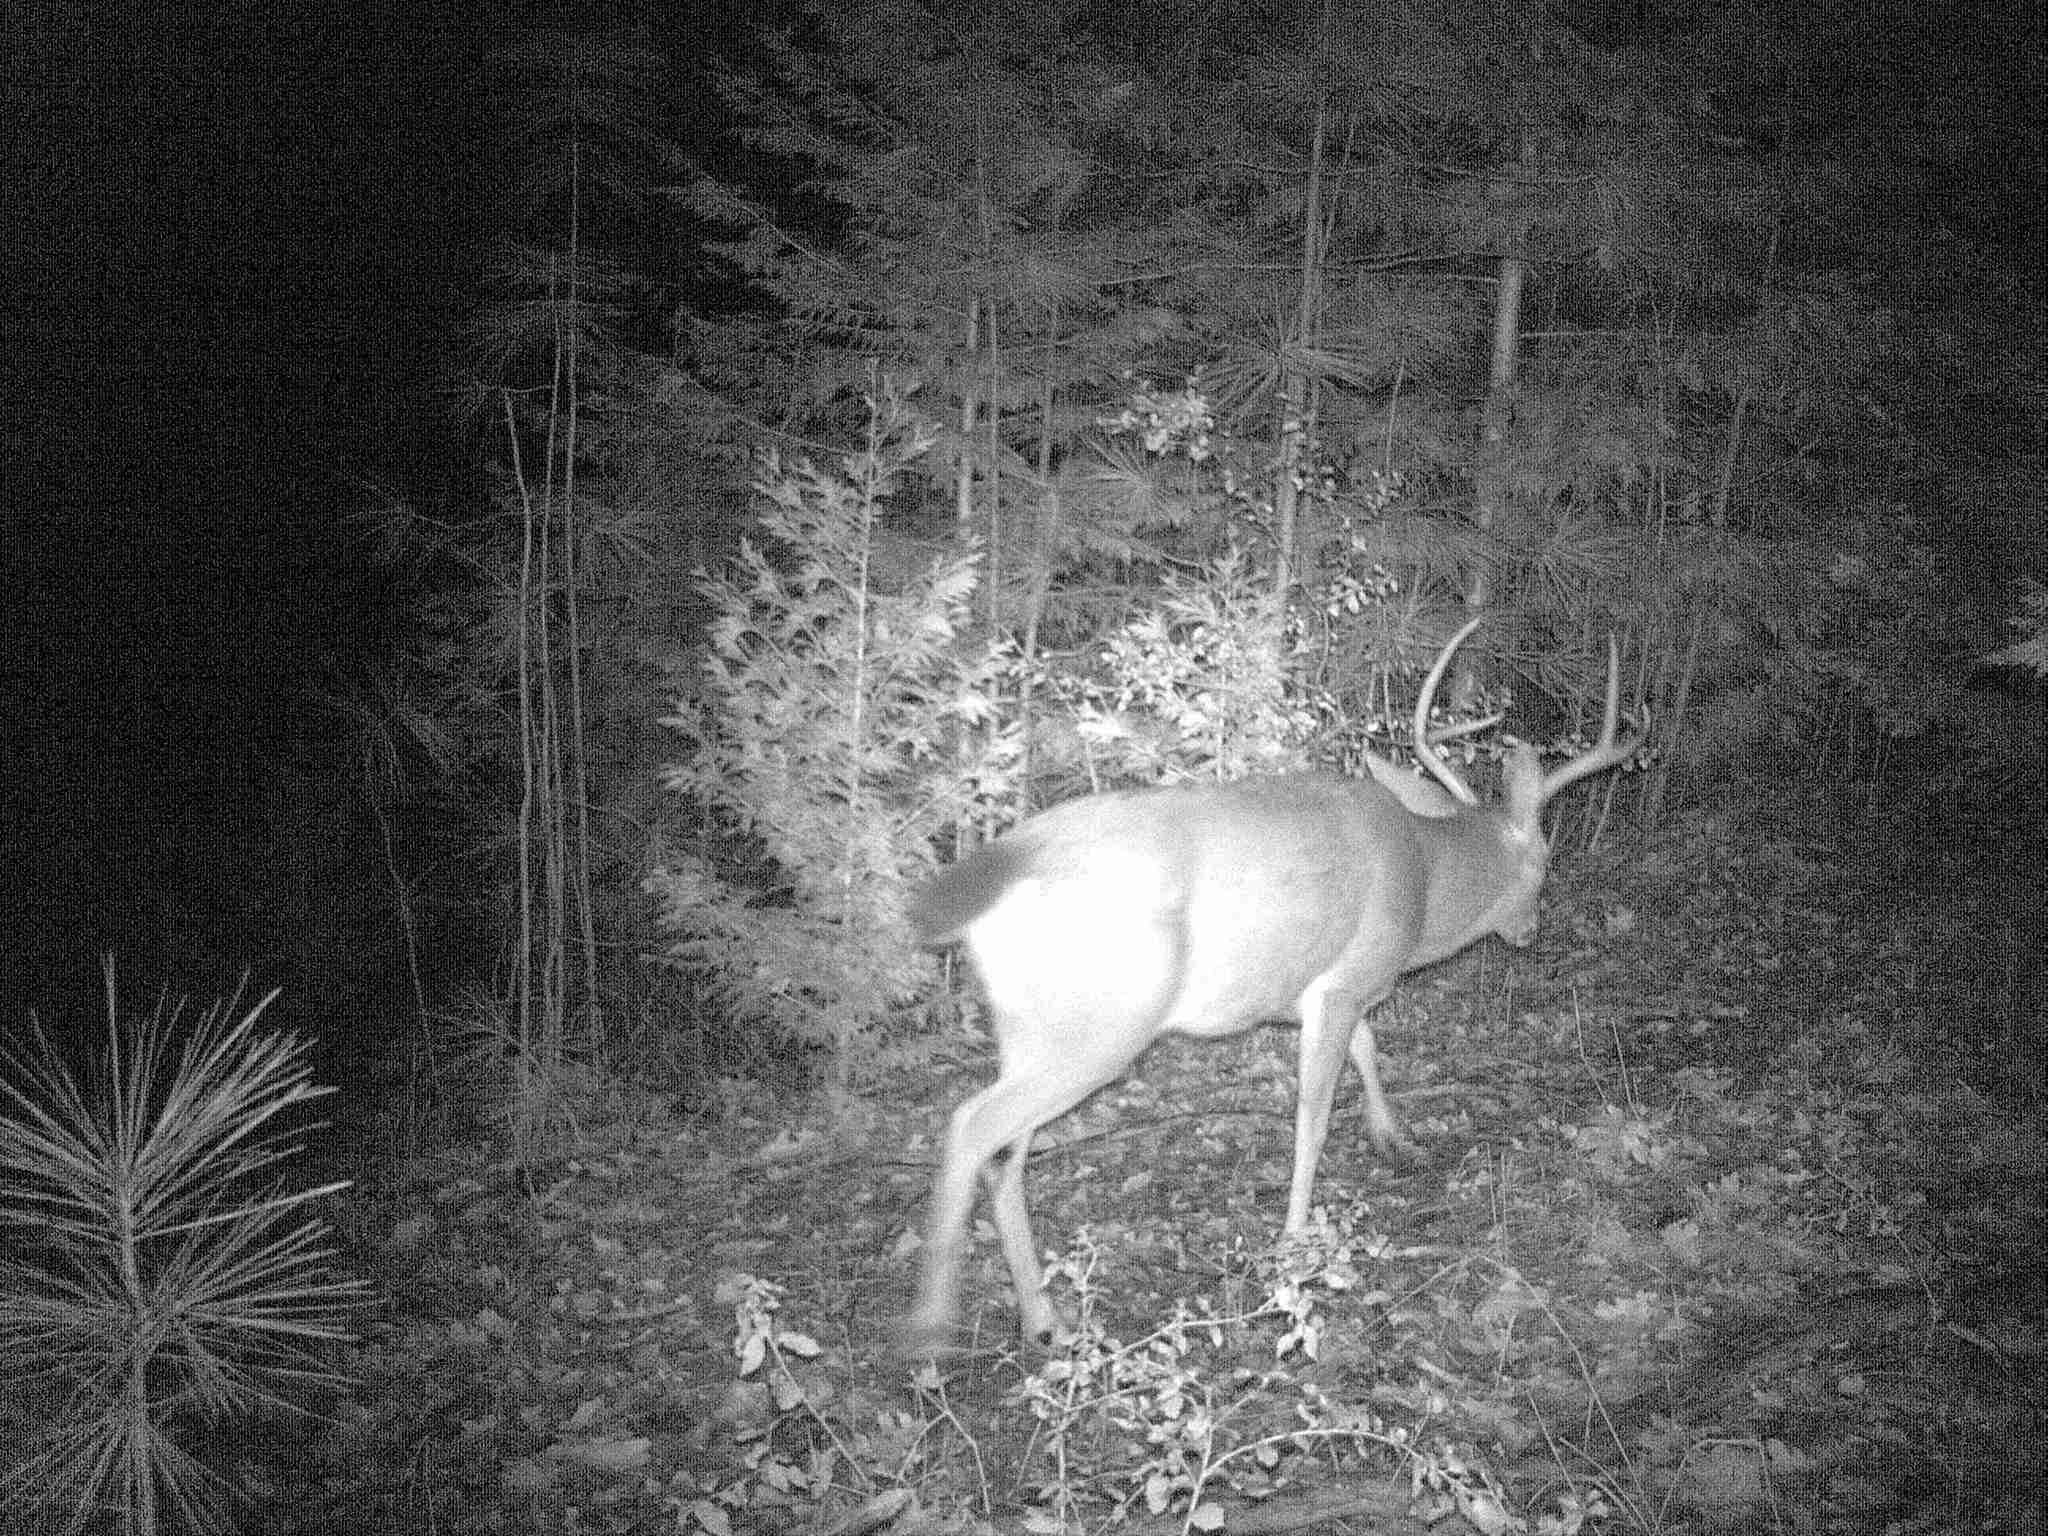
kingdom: Animalia
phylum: Chordata
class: Mammalia
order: Artiodactyla
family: Cervidae
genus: Odocoileus
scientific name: Odocoileus hemionus
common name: Mule deer
